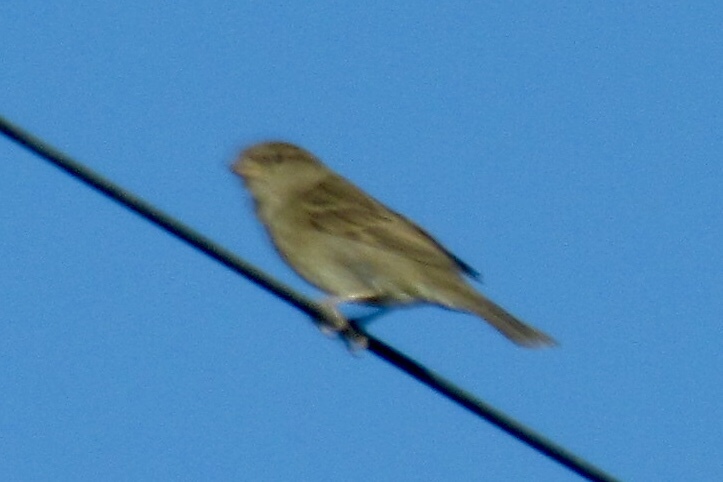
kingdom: Animalia
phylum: Chordata
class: Aves
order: Passeriformes
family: Passeridae
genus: Passer
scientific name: Passer domesticus
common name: House sparrow
